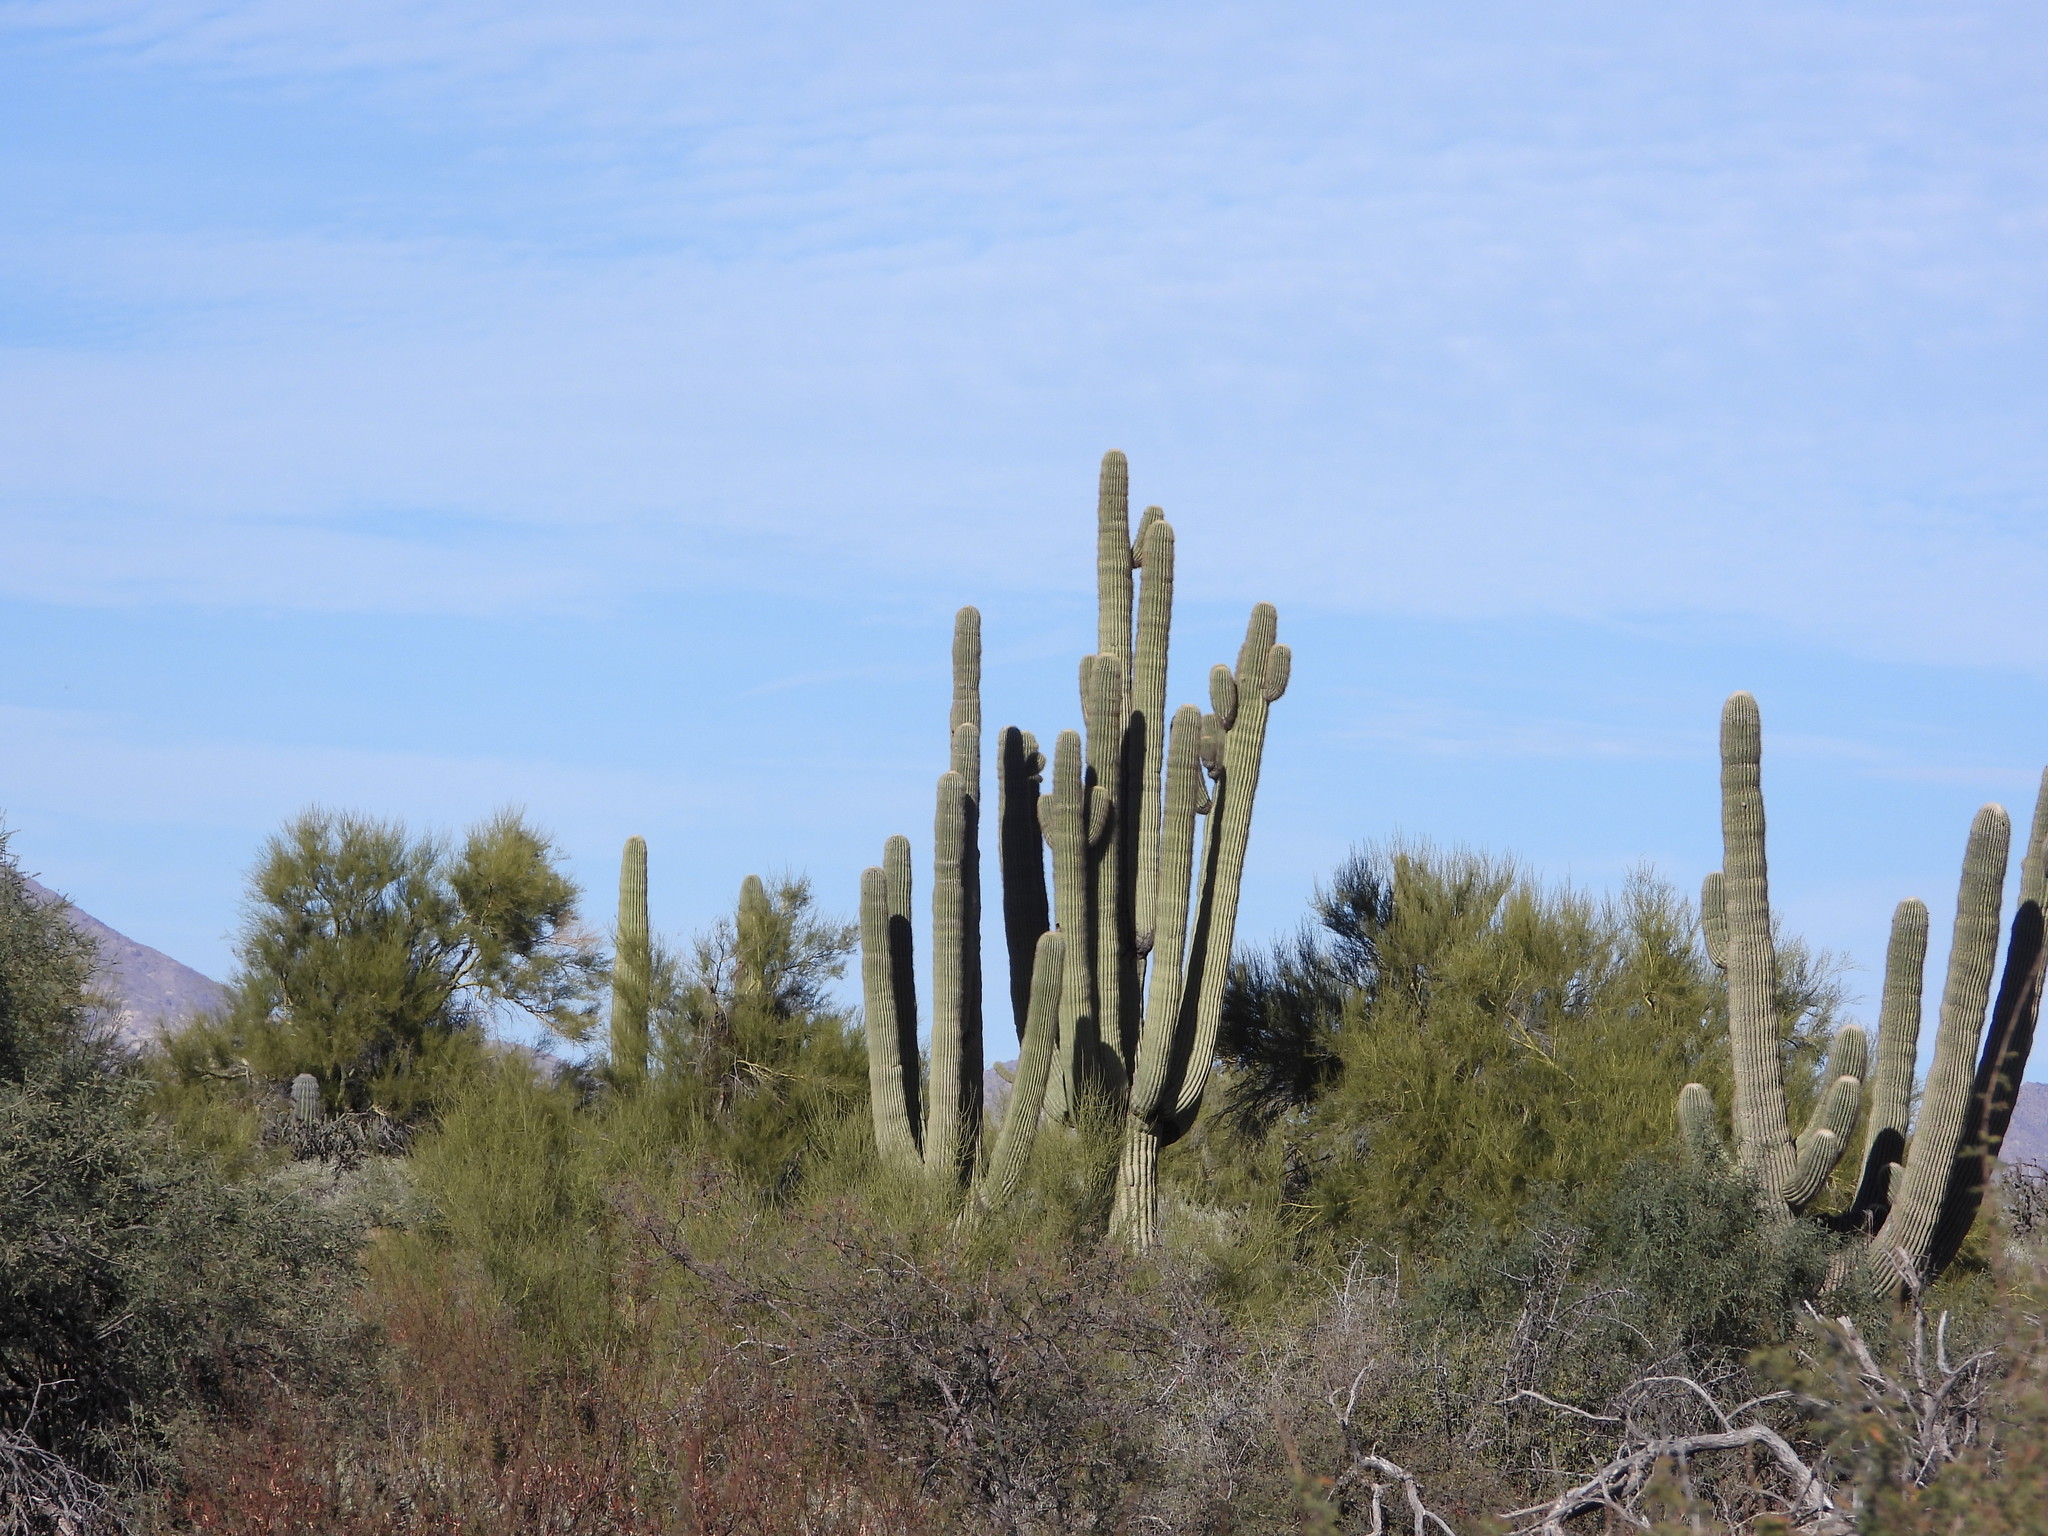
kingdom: Plantae
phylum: Tracheophyta
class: Magnoliopsida
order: Caryophyllales
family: Cactaceae
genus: Carnegiea
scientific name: Carnegiea gigantea
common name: Saguaro
